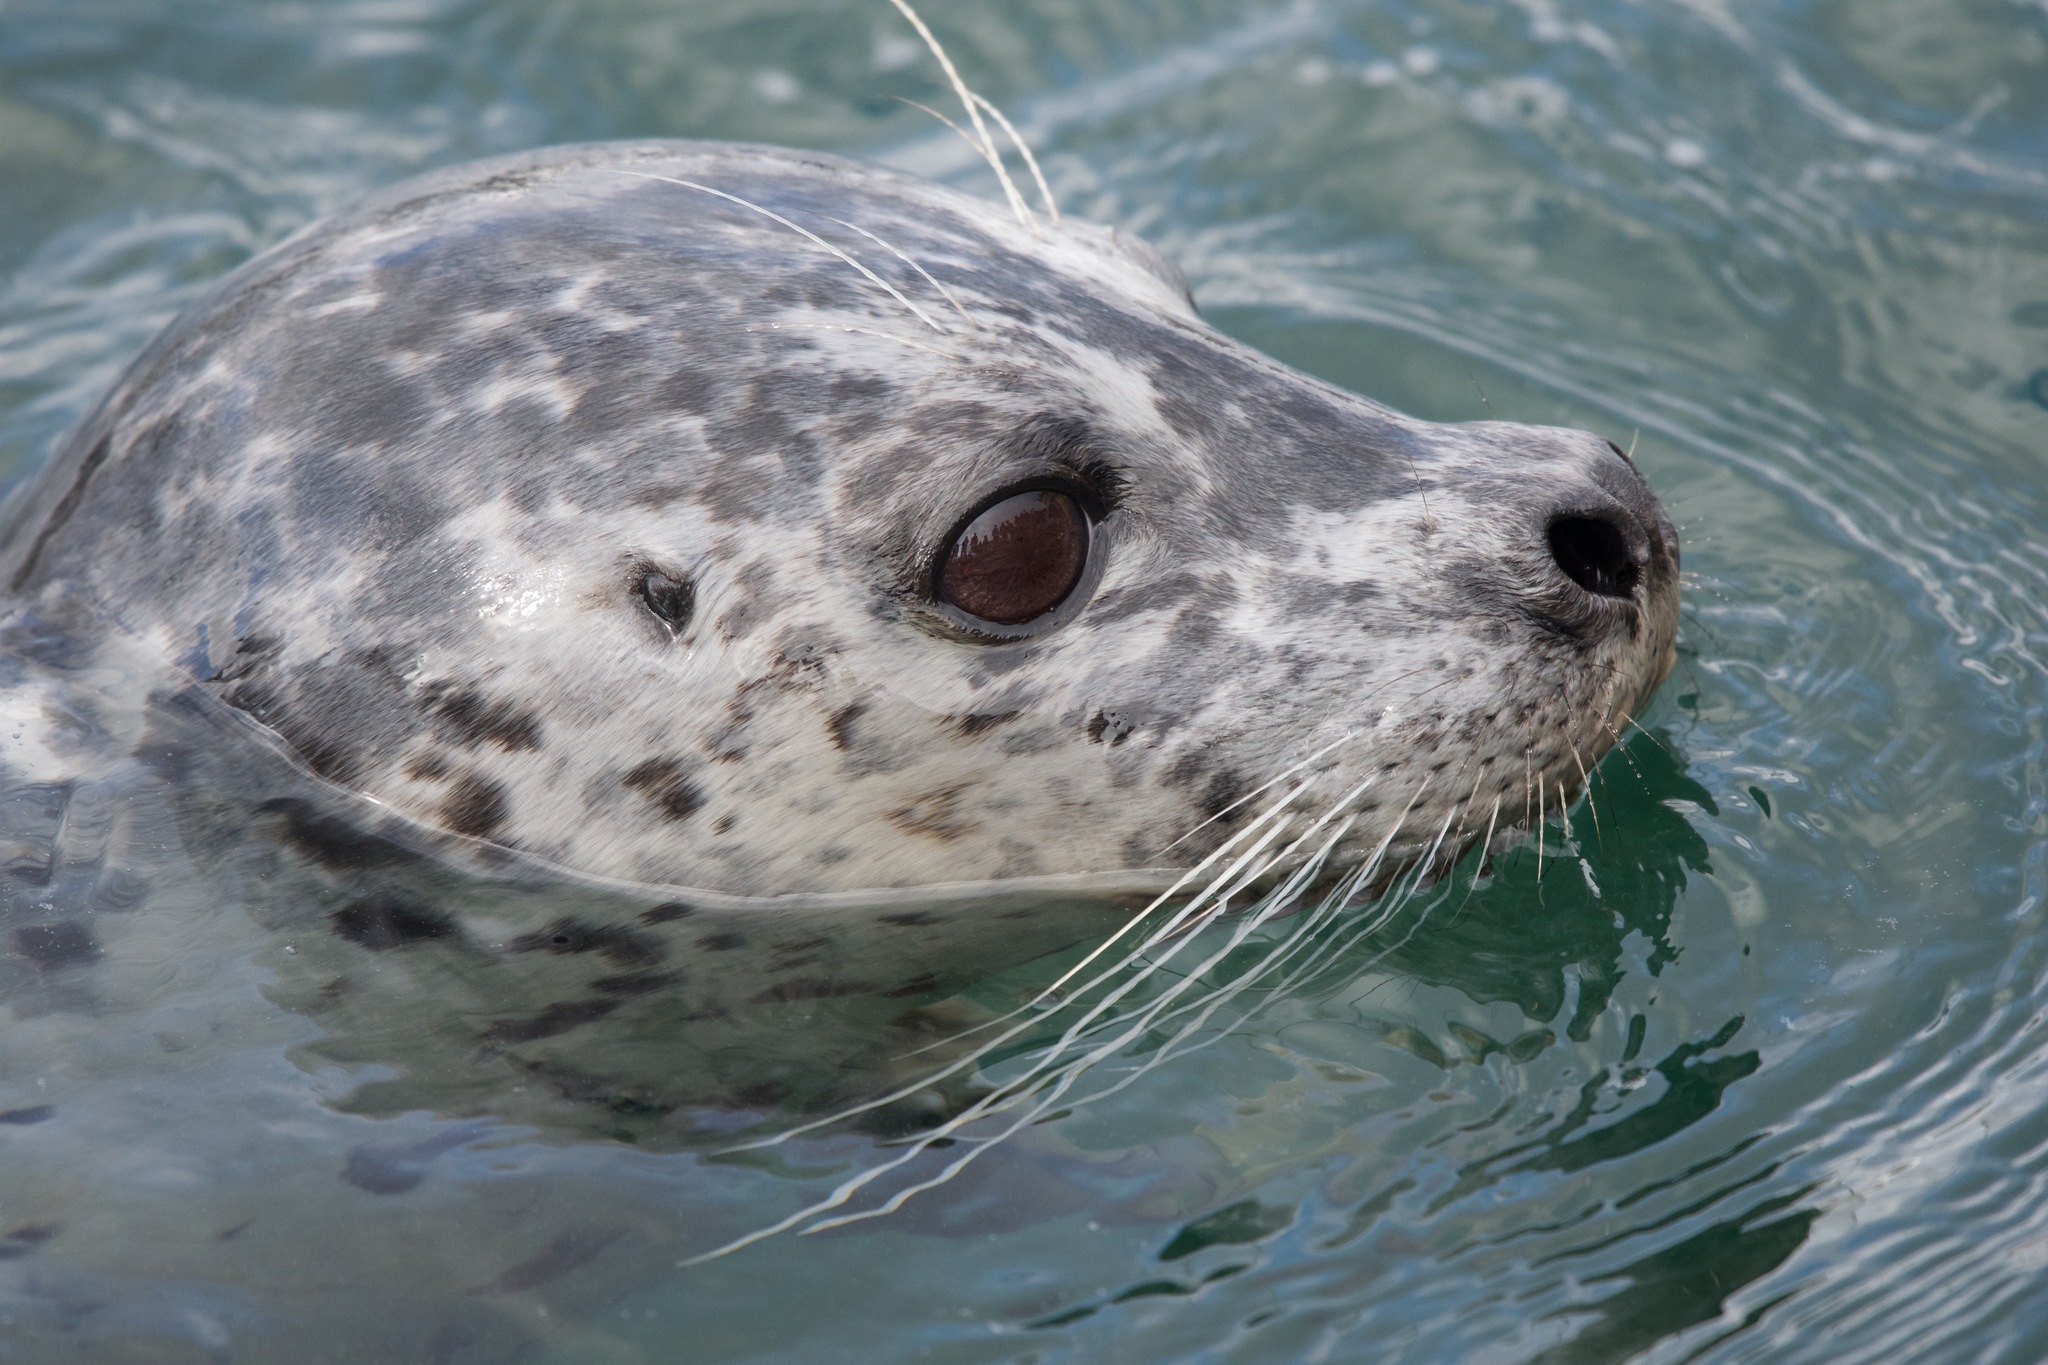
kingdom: Animalia
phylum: Chordata
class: Mammalia
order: Carnivora
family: Phocidae
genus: Phoca
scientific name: Phoca vitulina
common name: Harbor seal
